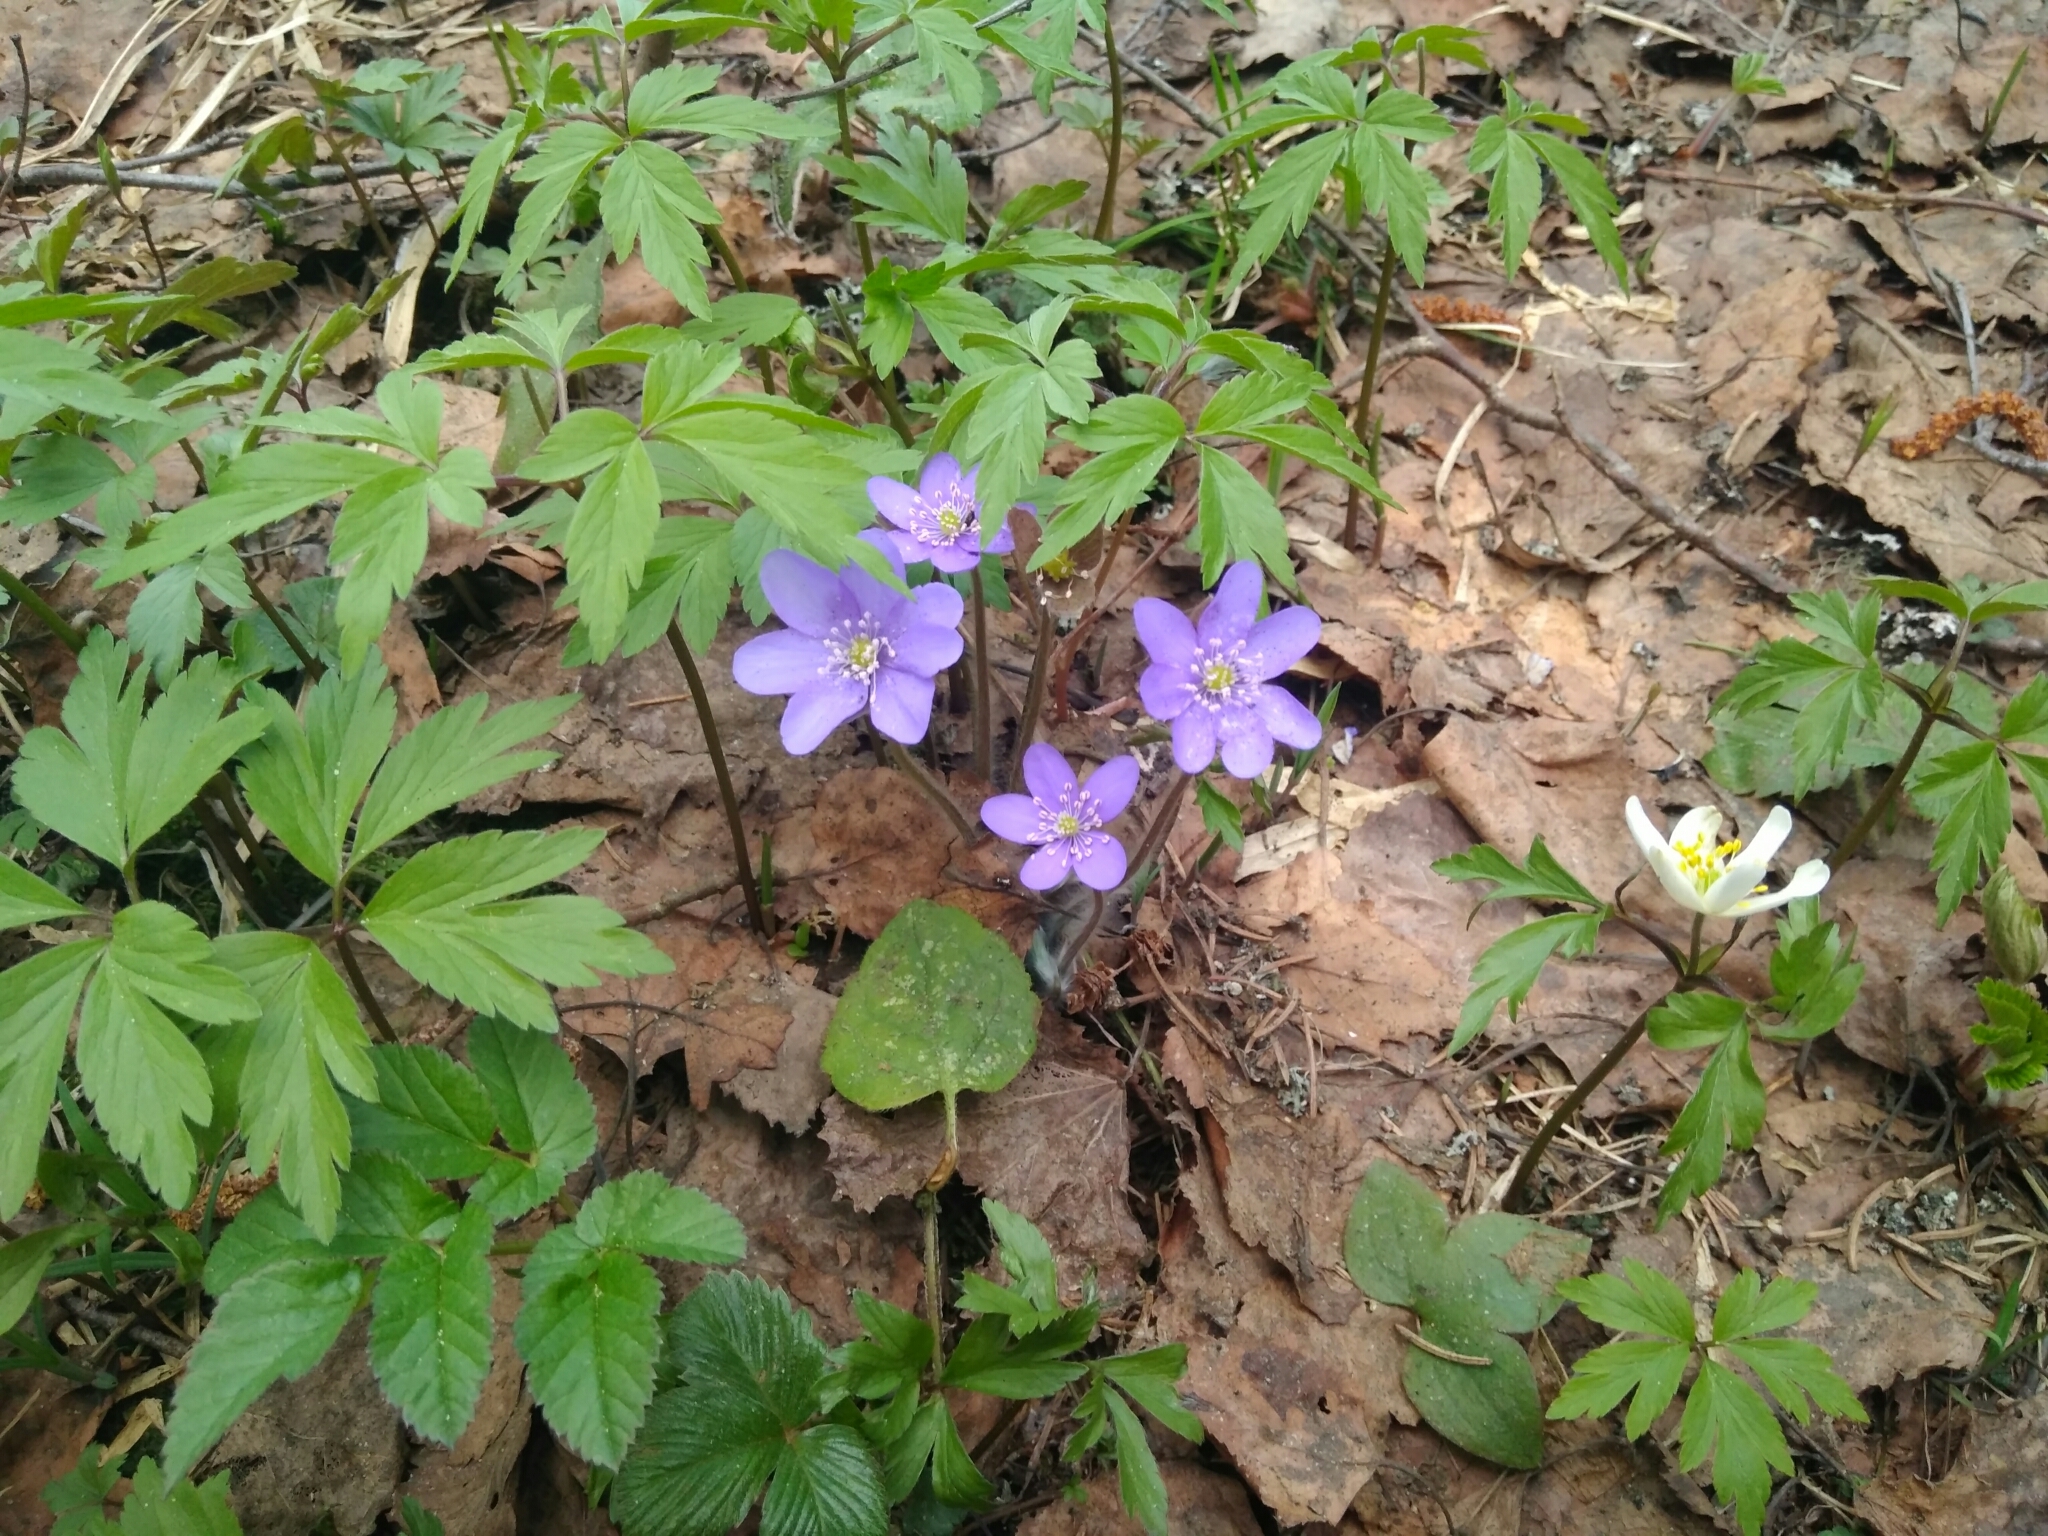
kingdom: Plantae
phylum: Tracheophyta
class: Magnoliopsida
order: Ranunculales
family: Ranunculaceae
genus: Hepatica
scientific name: Hepatica nobilis
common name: Liverleaf
